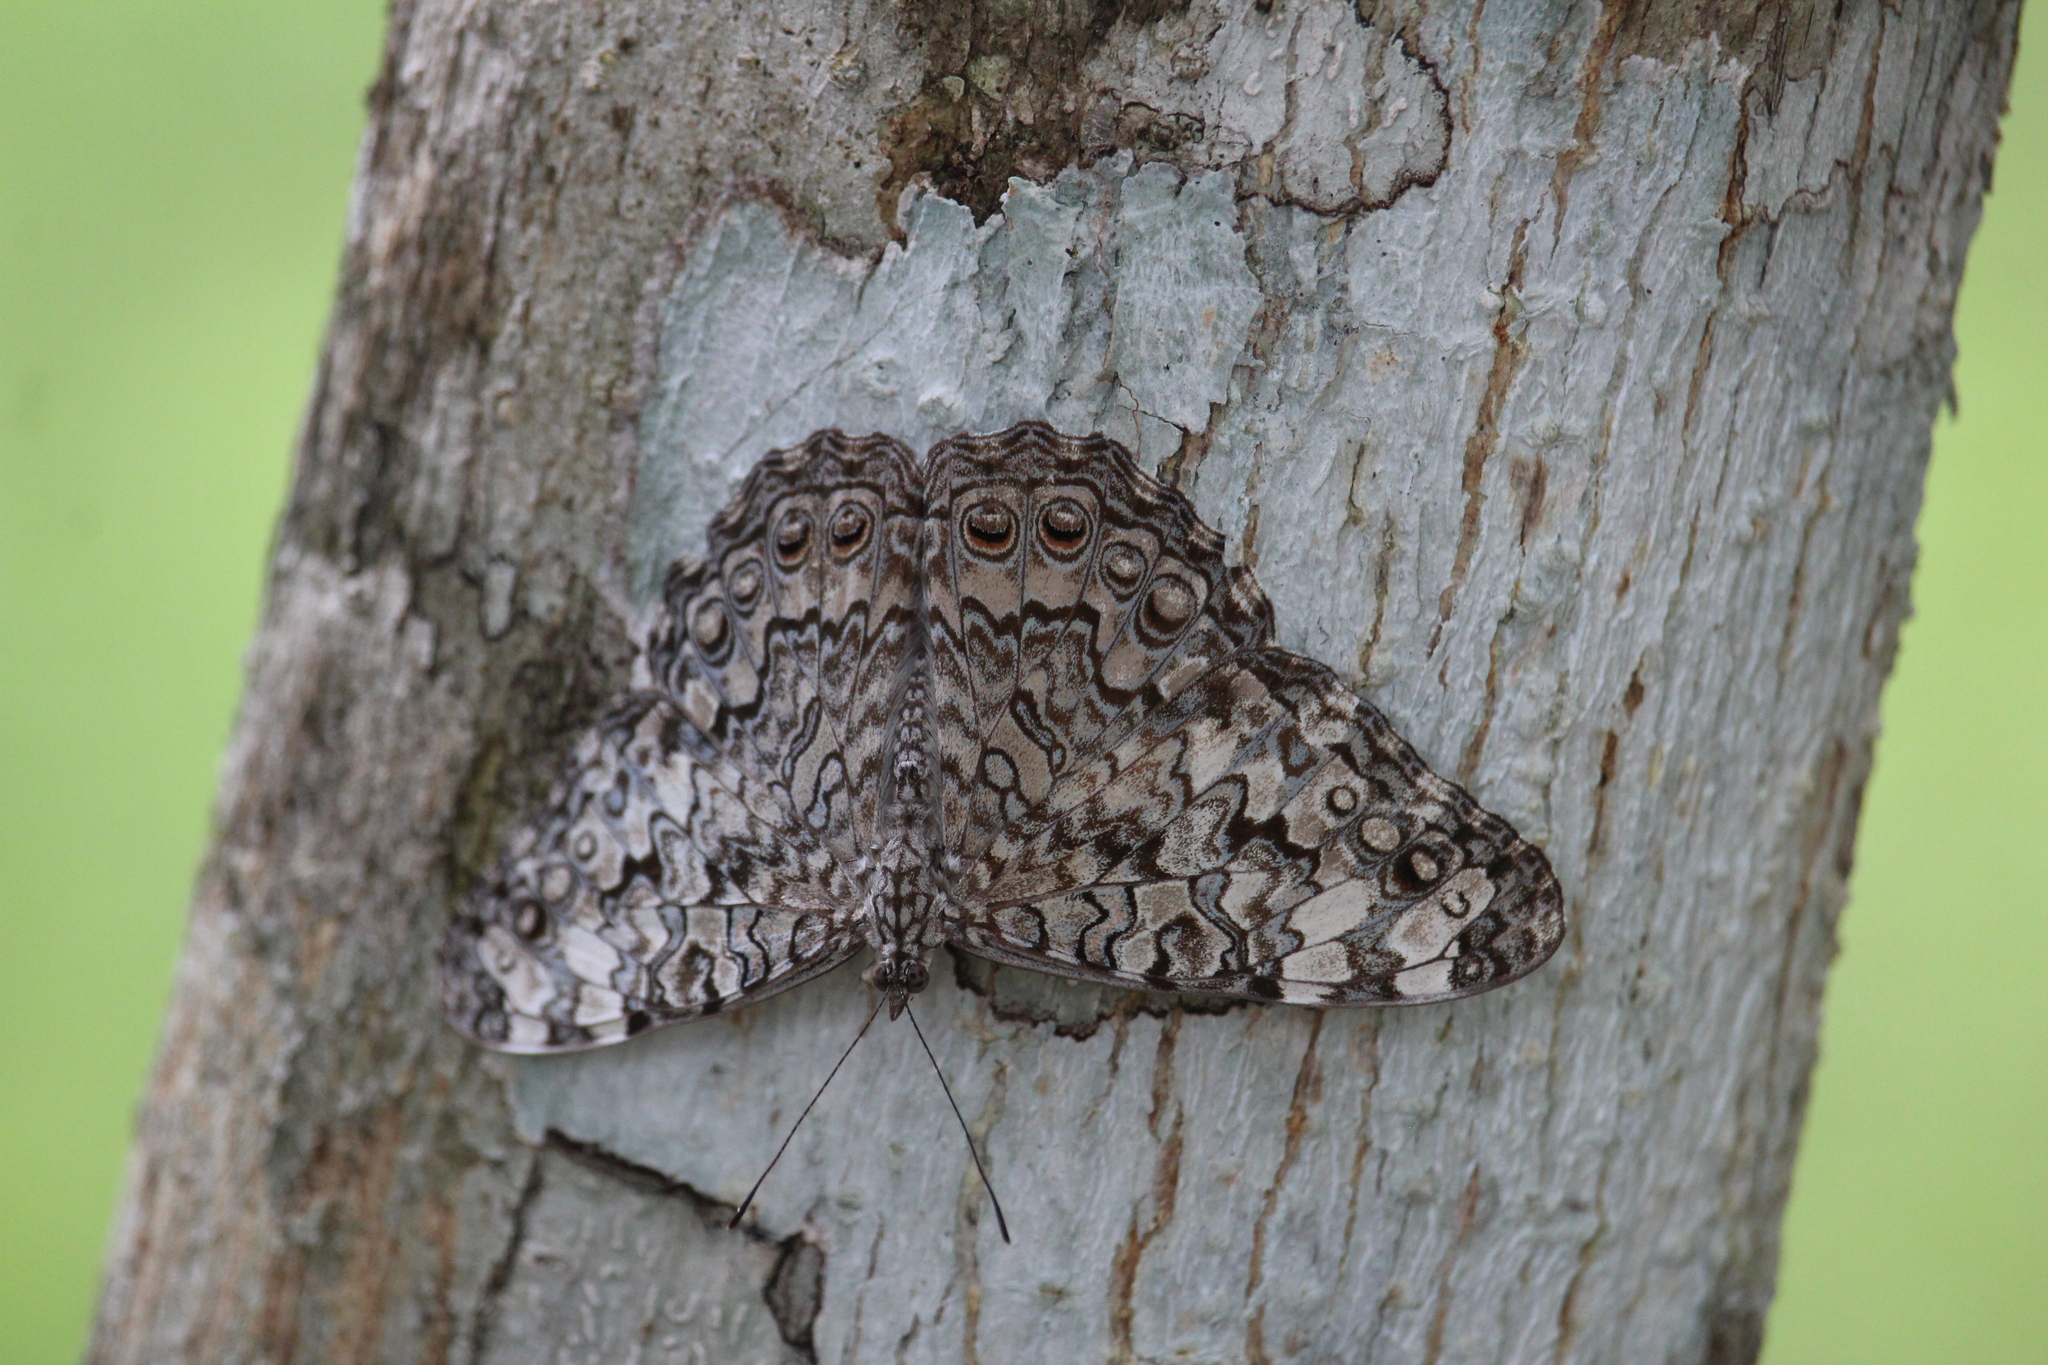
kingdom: Animalia
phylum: Arthropoda
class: Insecta
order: Lepidoptera
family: Nymphalidae
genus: Hamadryas
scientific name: Hamadryas februa
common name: Gray cracker
